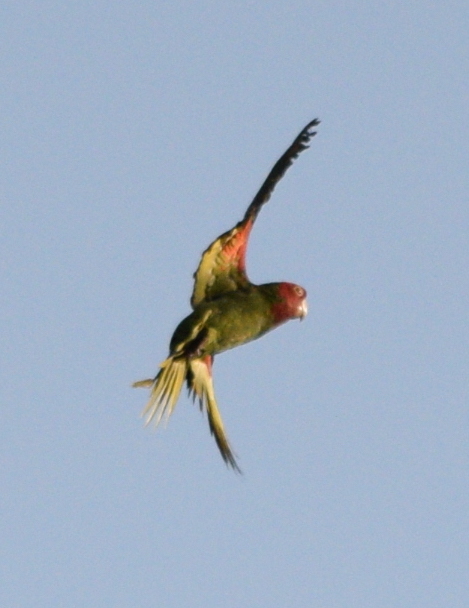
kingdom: Animalia
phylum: Chordata
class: Aves
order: Psittaciformes
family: Psittacidae
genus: Aratinga
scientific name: Aratinga erythrogenys
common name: Red-masked parakeet
